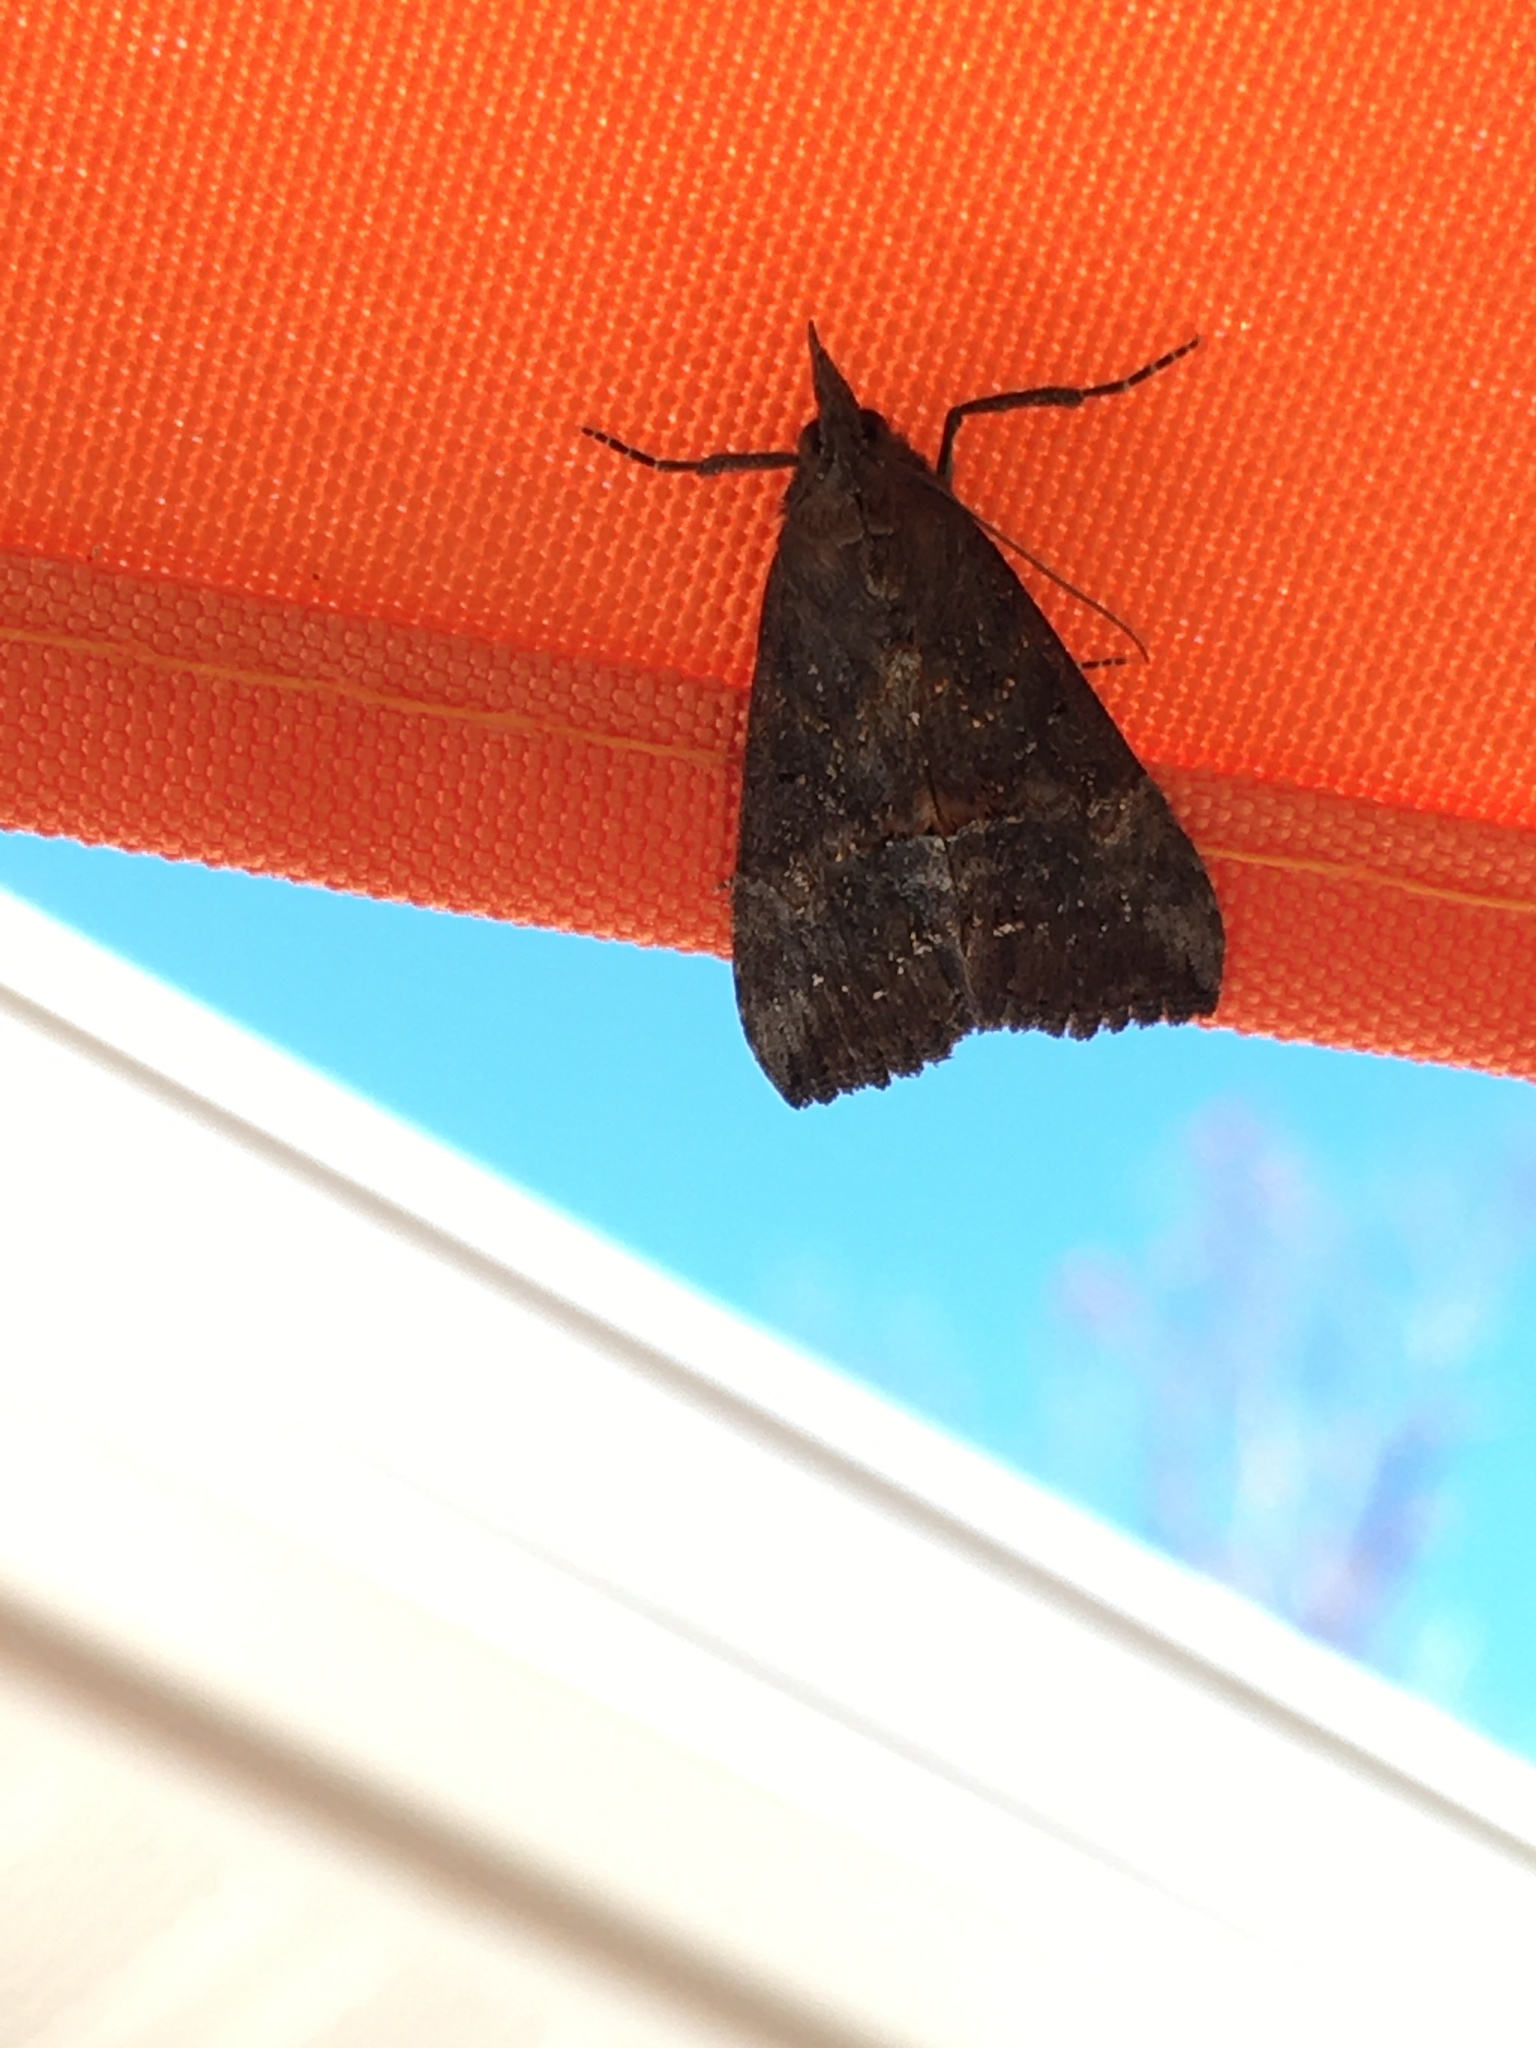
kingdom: Animalia
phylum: Arthropoda
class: Insecta
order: Lepidoptera
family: Erebidae
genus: Hypena
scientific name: Hypena scabra
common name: Green cloverworm
